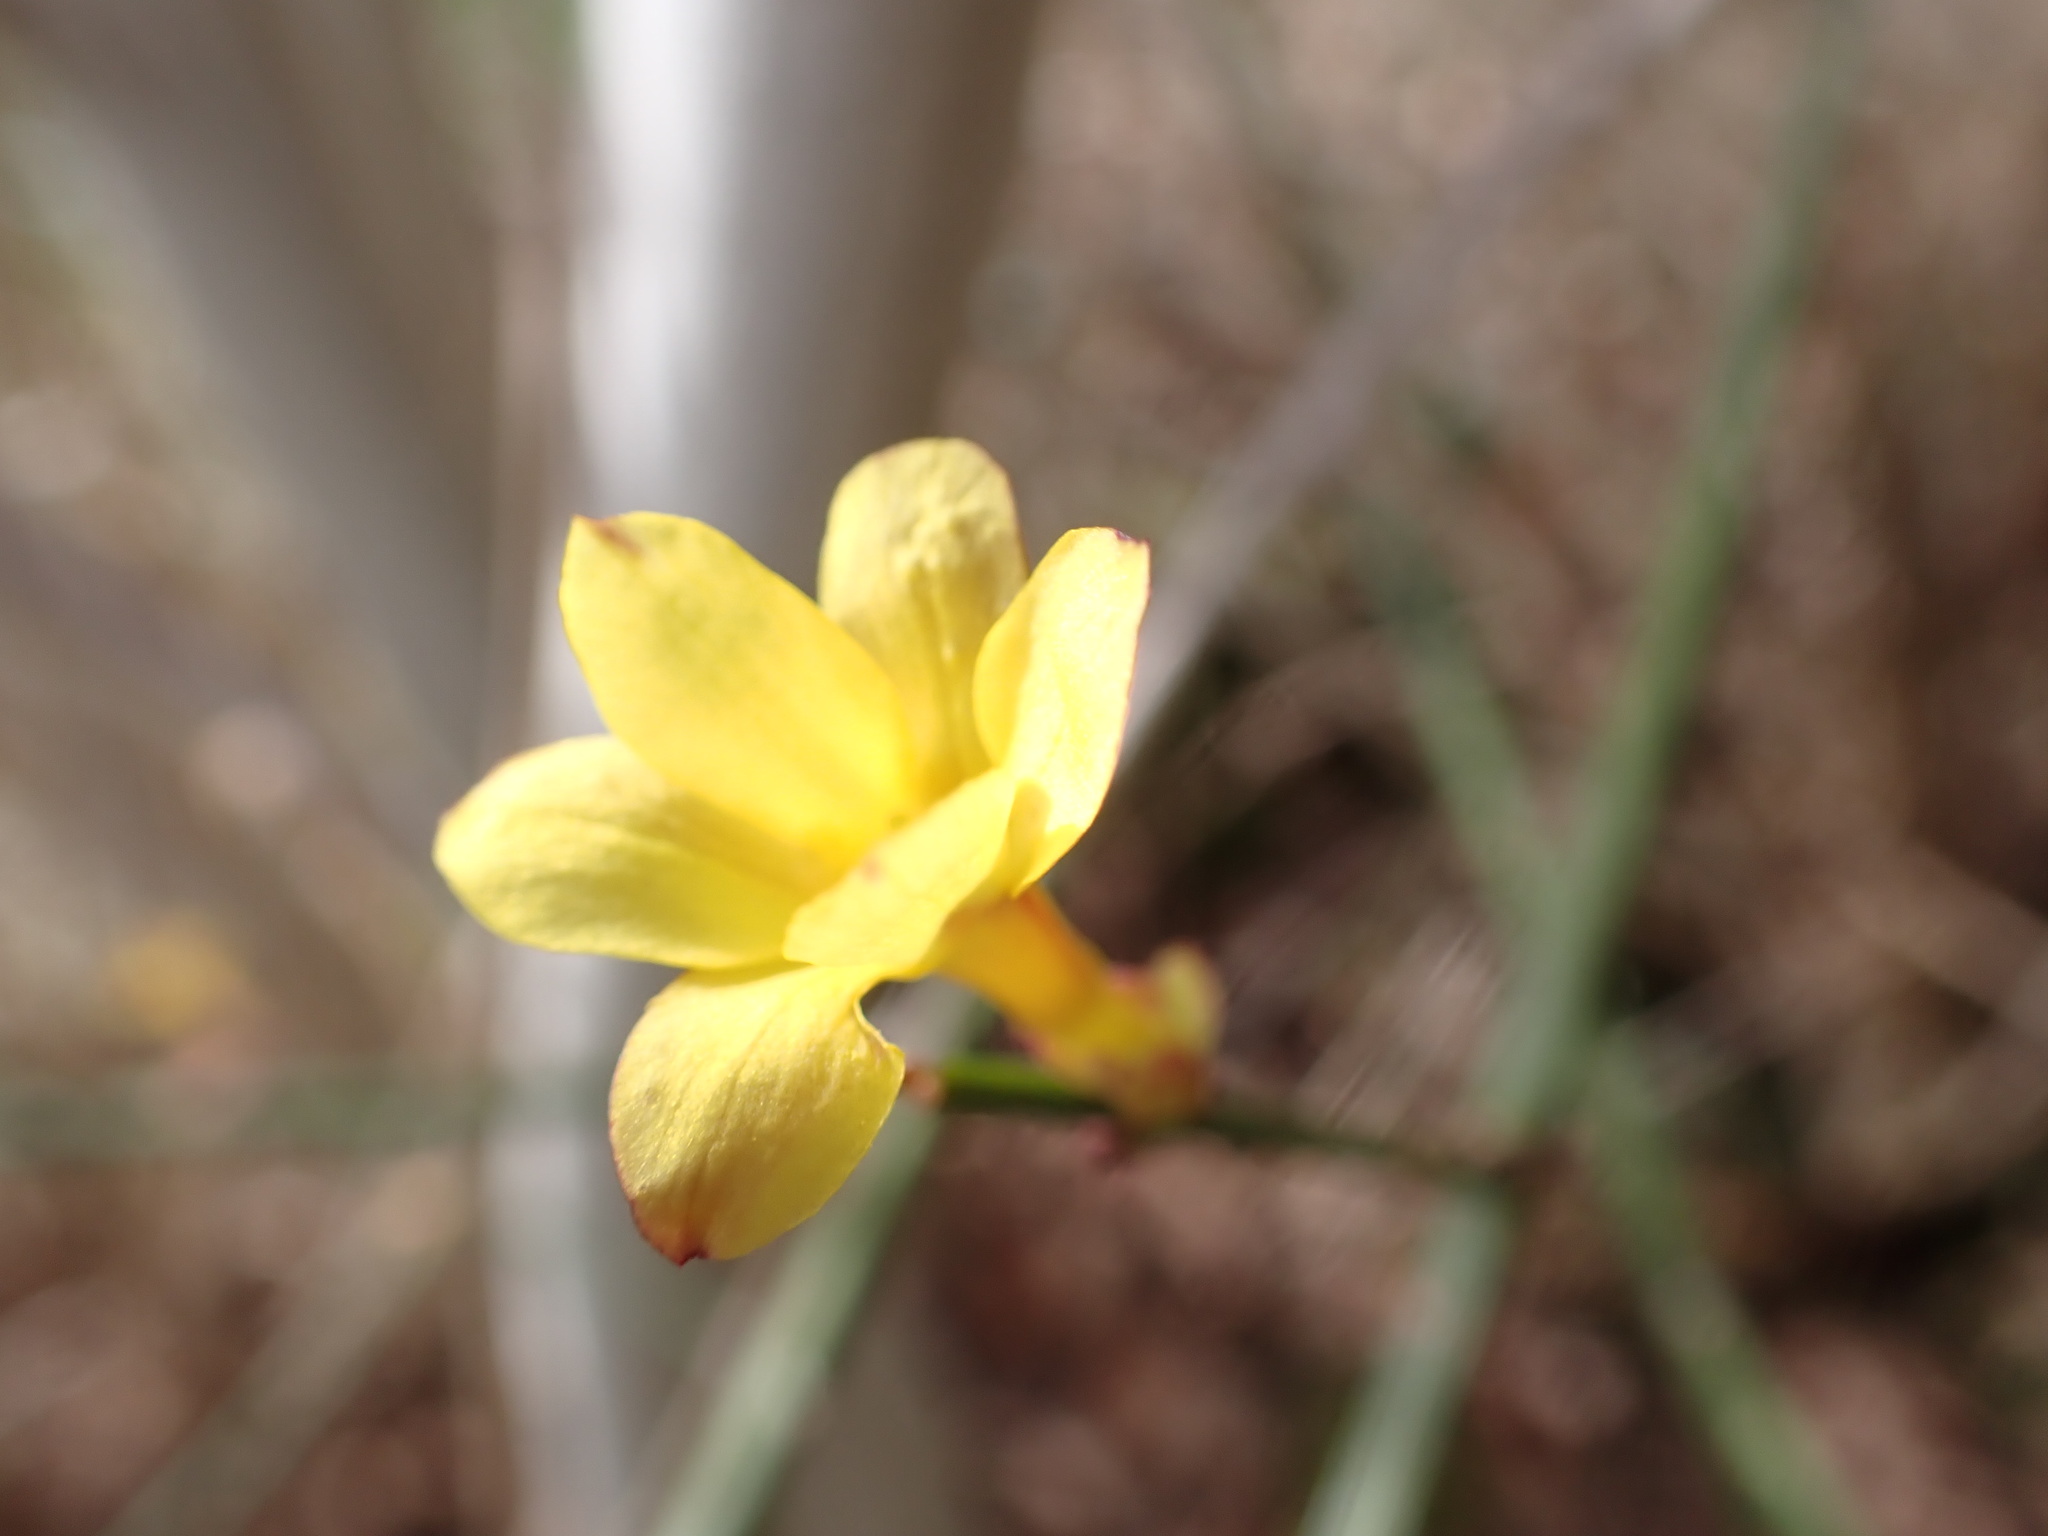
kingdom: Plantae
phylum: Tracheophyta
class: Magnoliopsida
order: Lamiales
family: Oleaceae
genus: Jasminum
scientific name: Jasminum nudiflorum
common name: Winter jasmine
